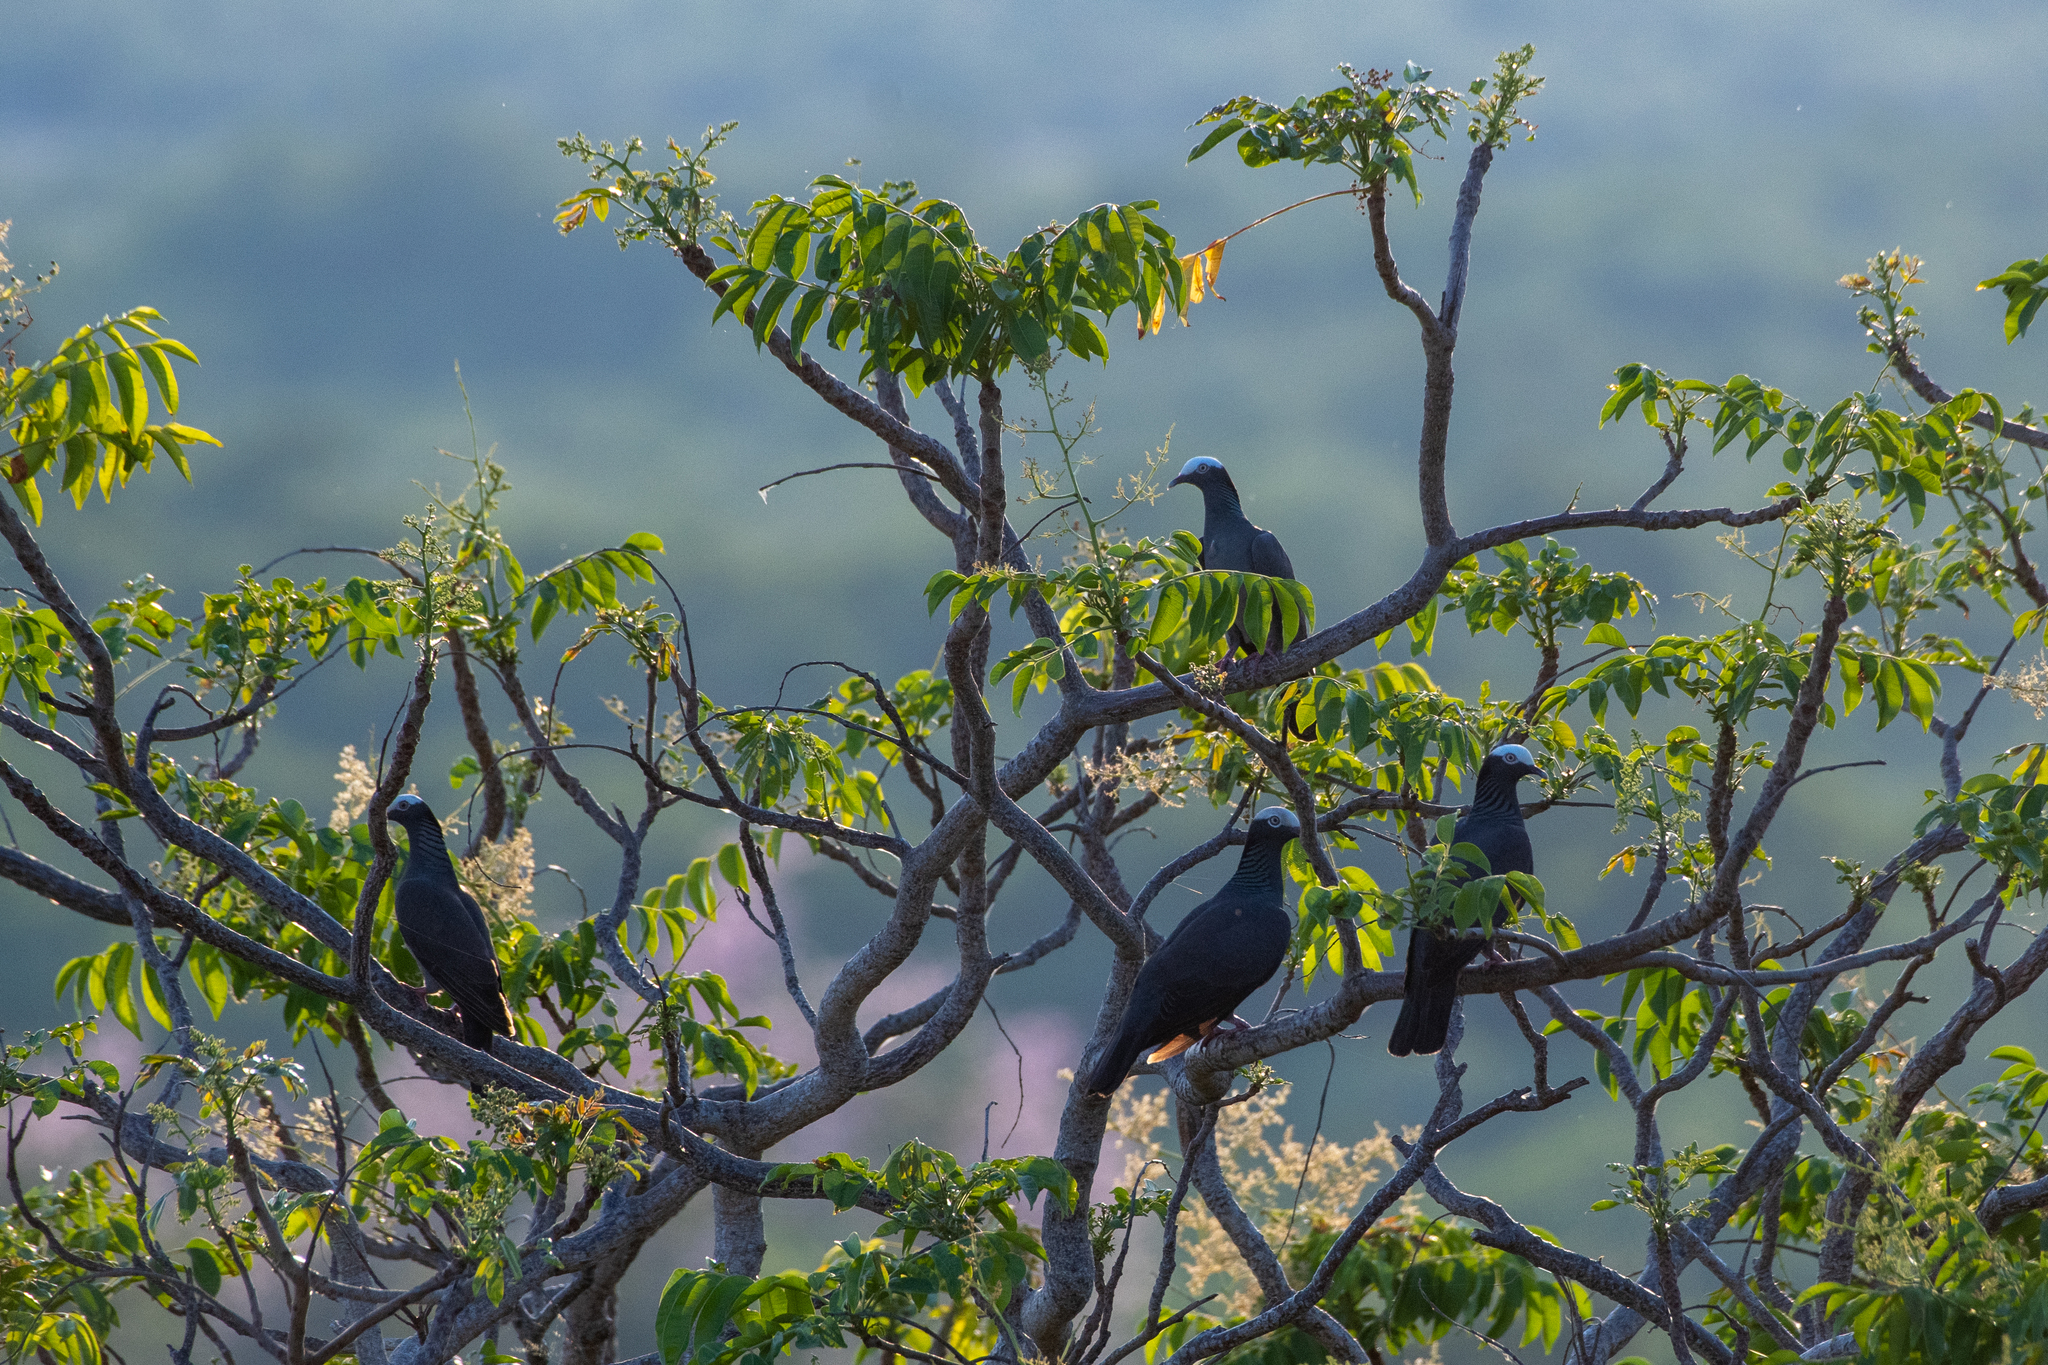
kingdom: Animalia
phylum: Chordata
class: Aves
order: Columbiformes
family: Columbidae
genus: Patagioenas
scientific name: Patagioenas leucocephala
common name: White-crowned pigeon
